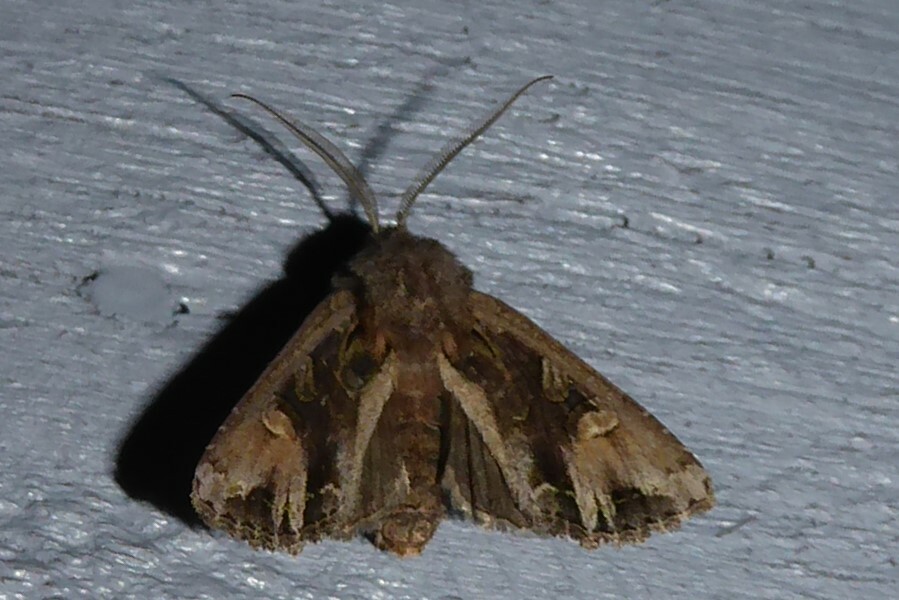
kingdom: Animalia
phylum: Arthropoda
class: Insecta
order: Lepidoptera
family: Noctuidae
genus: Ichneutica
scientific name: Ichneutica
